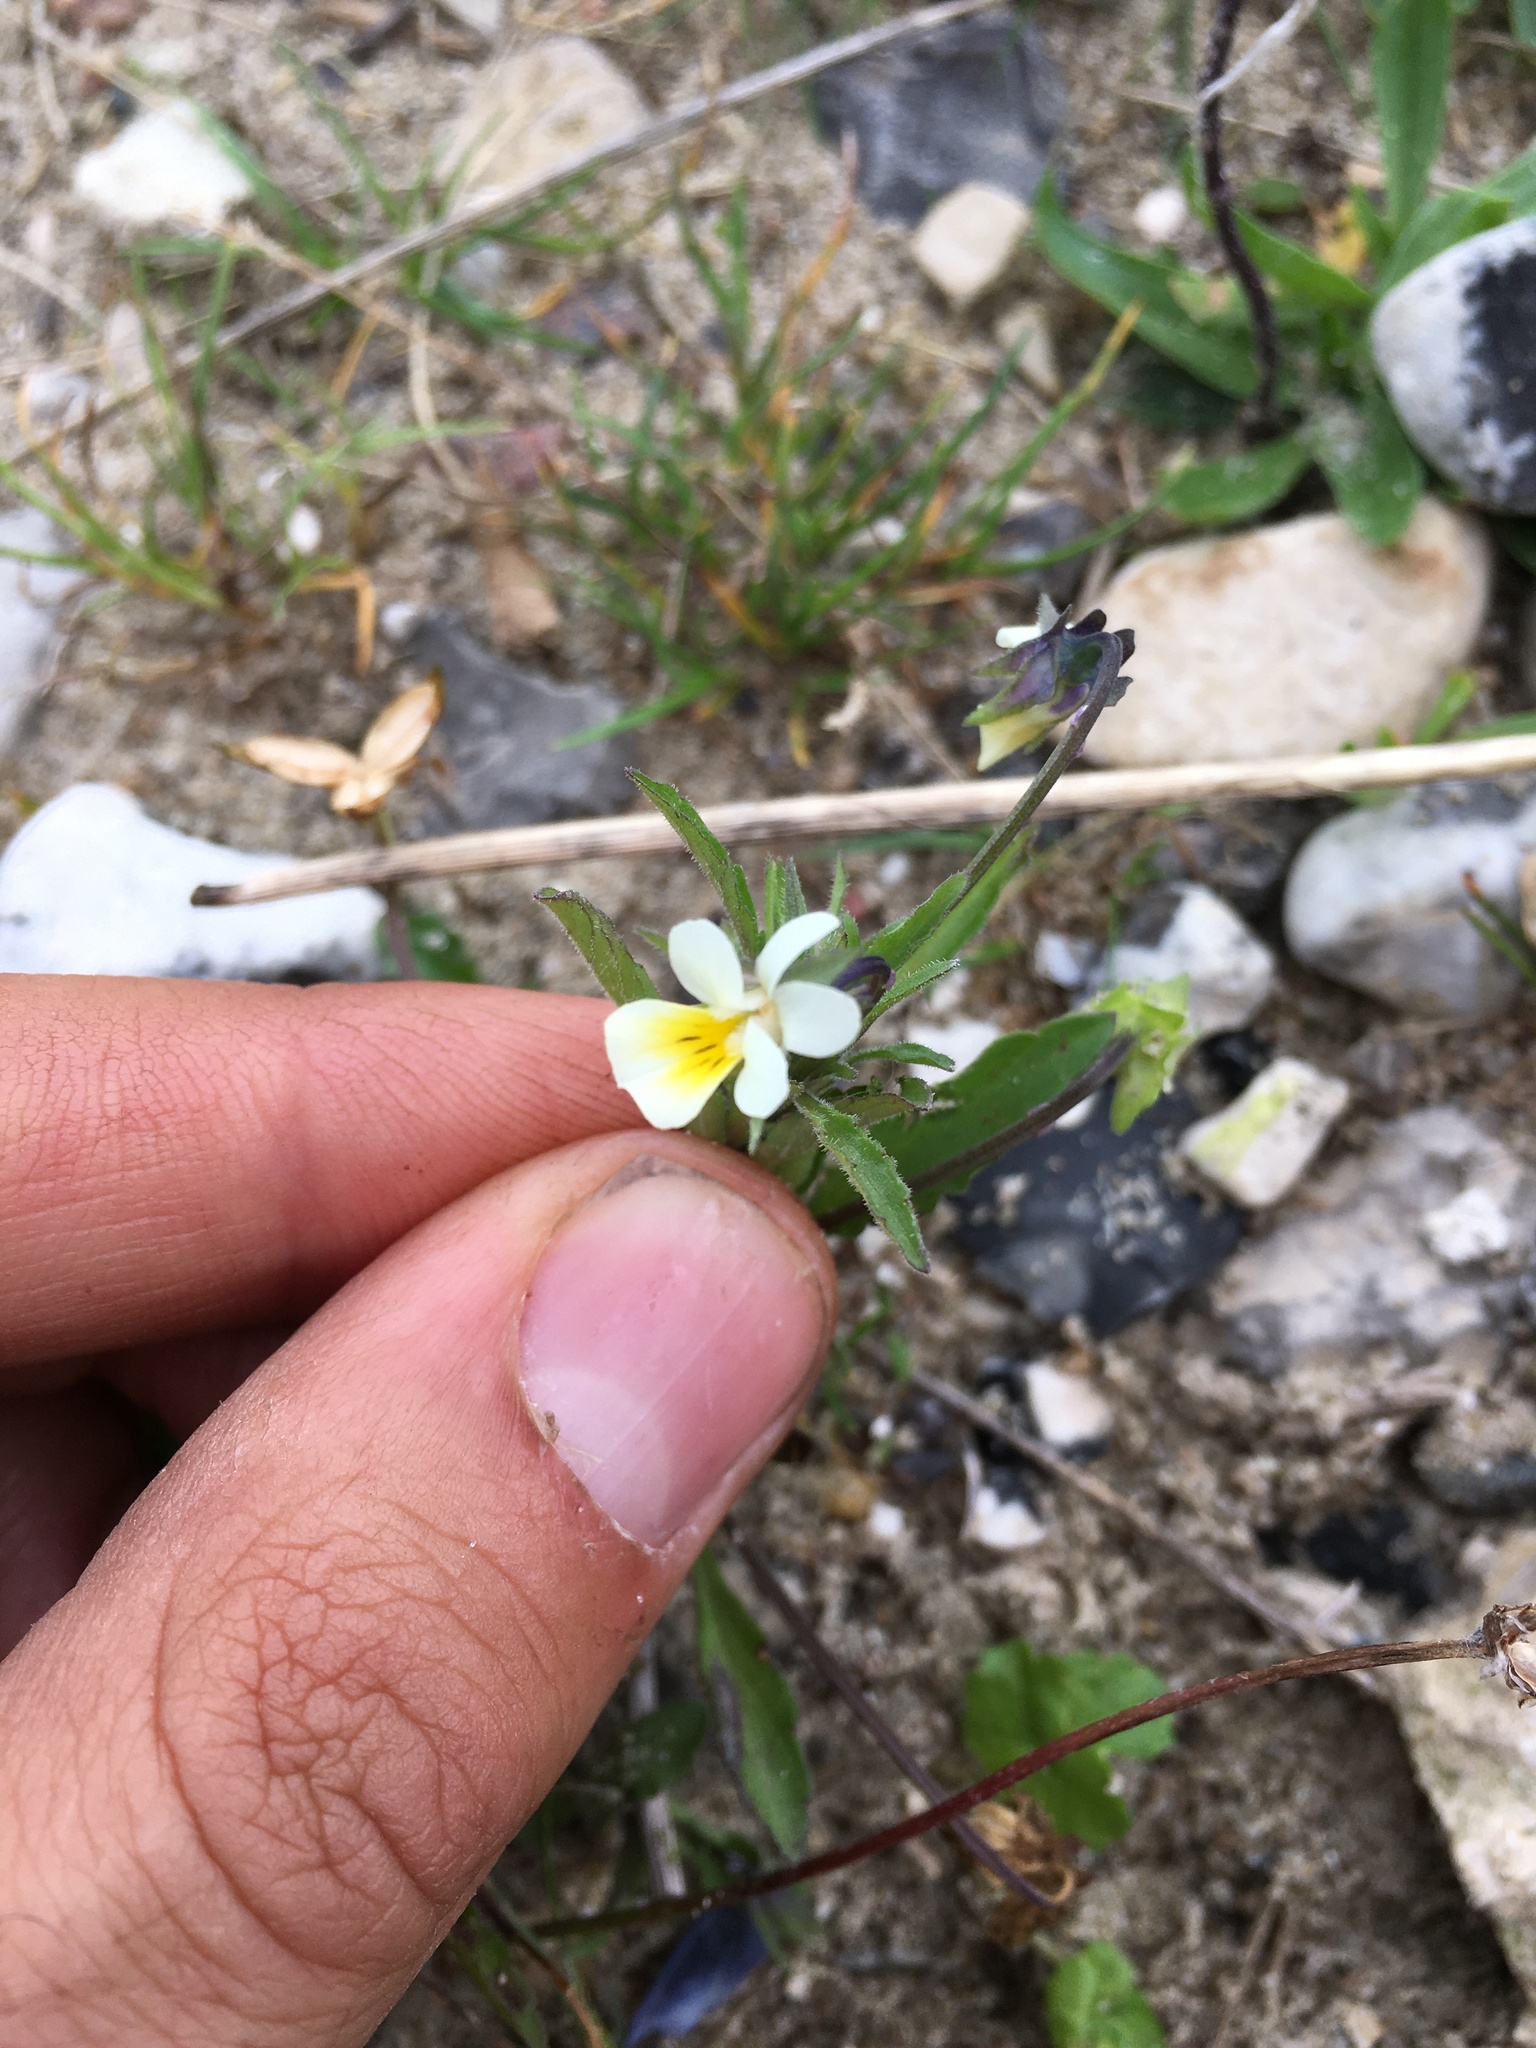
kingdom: Plantae
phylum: Tracheophyta
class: Magnoliopsida
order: Malpighiales
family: Violaceae
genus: Viola
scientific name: Viola arvensis
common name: Field pansy
